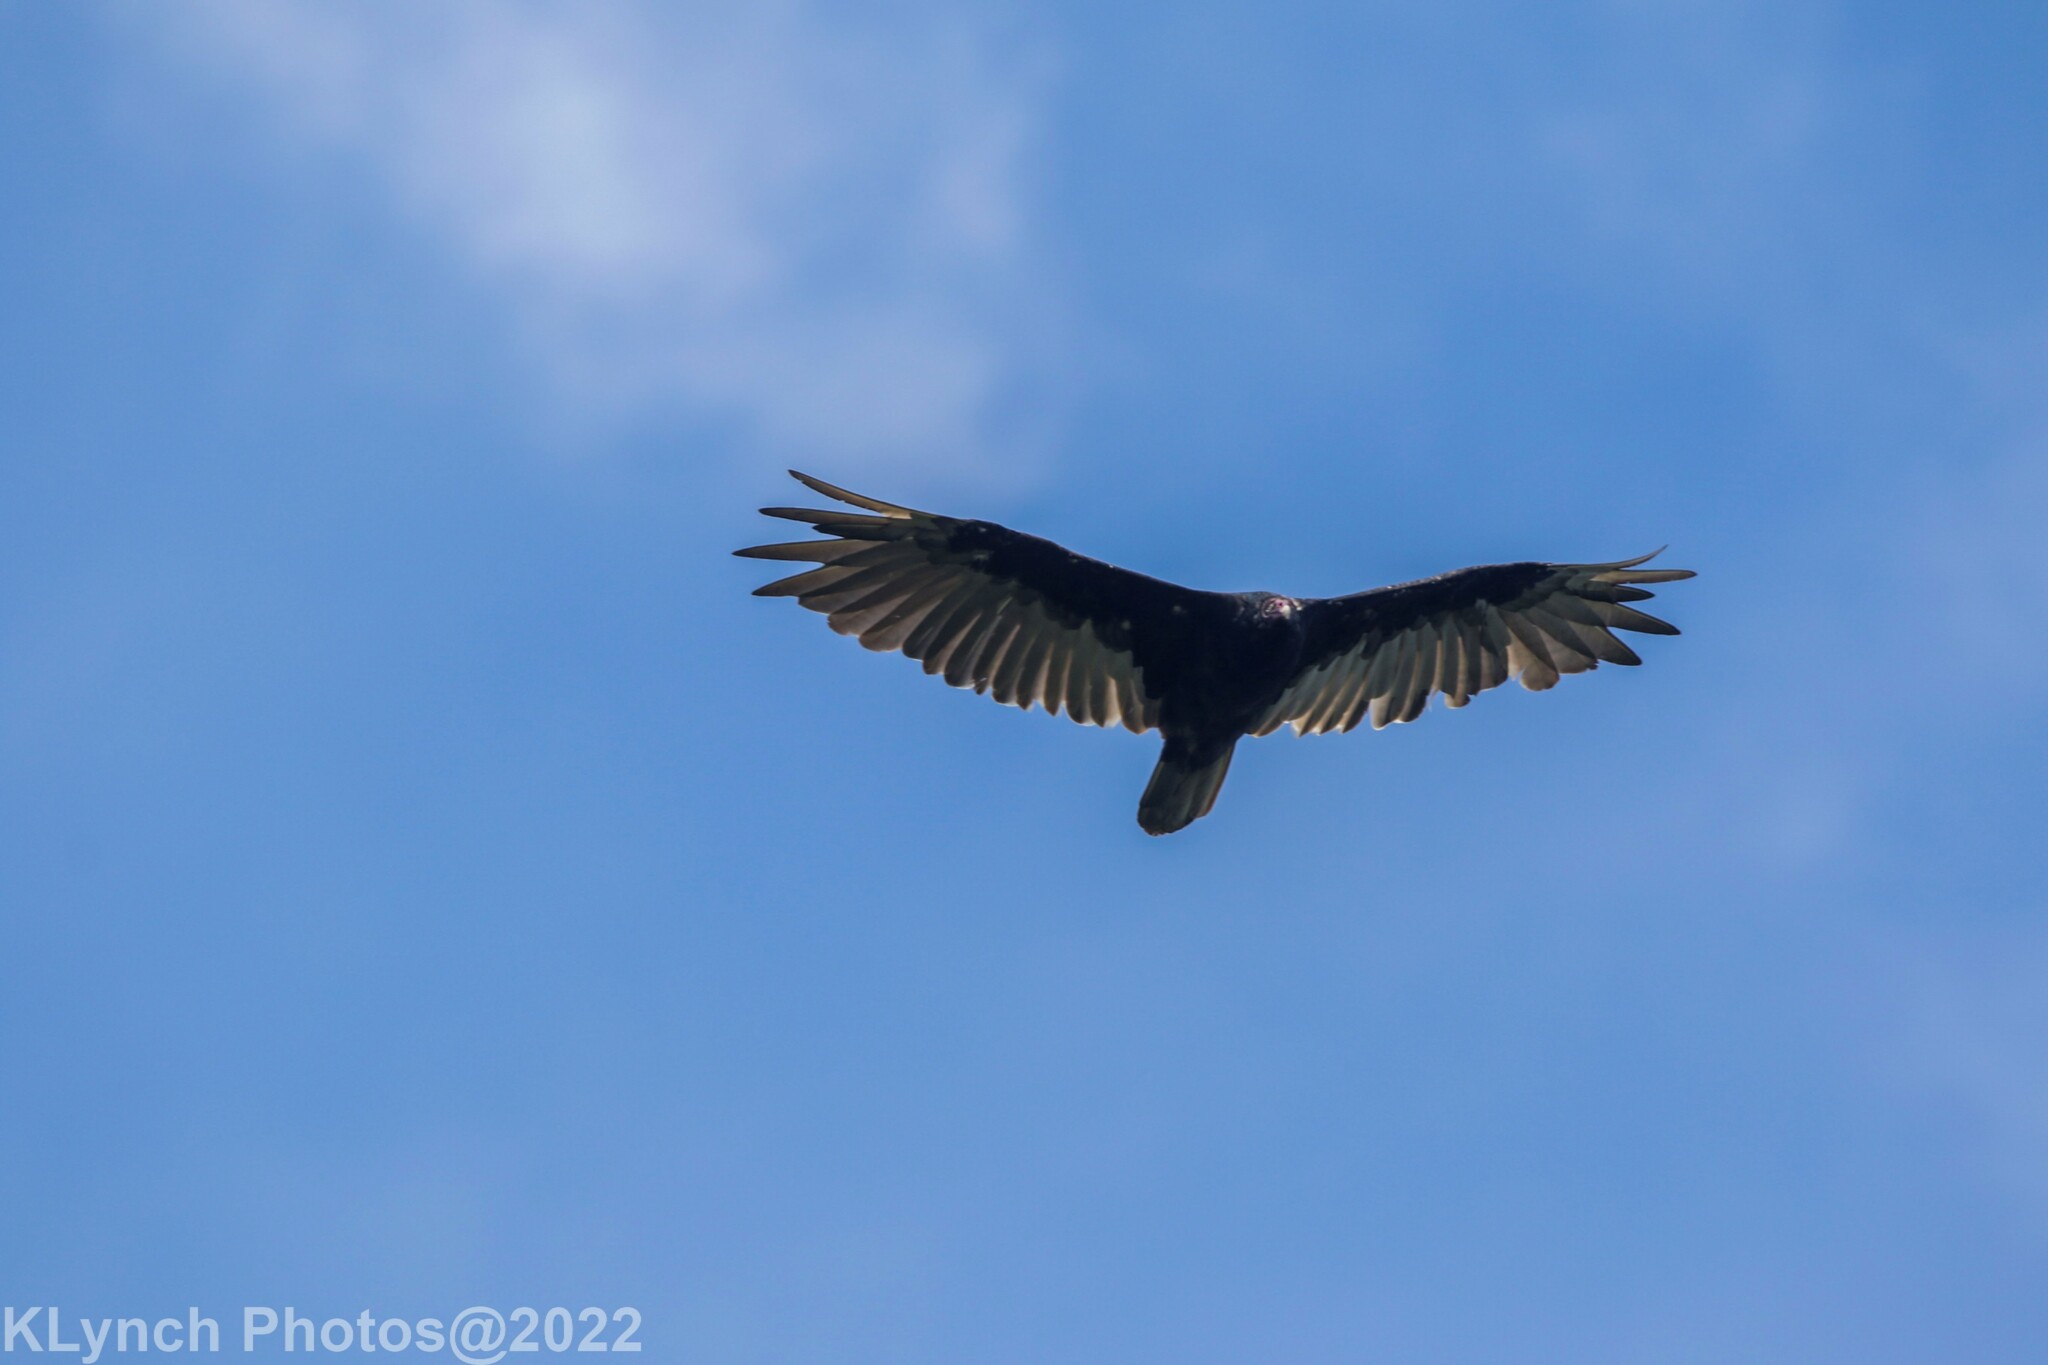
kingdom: Animalia
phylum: Chordata
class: Aves
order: Accipitriformes
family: Cathartidae
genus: Cathartes
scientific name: Cathartes aura
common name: Turkey vulture
